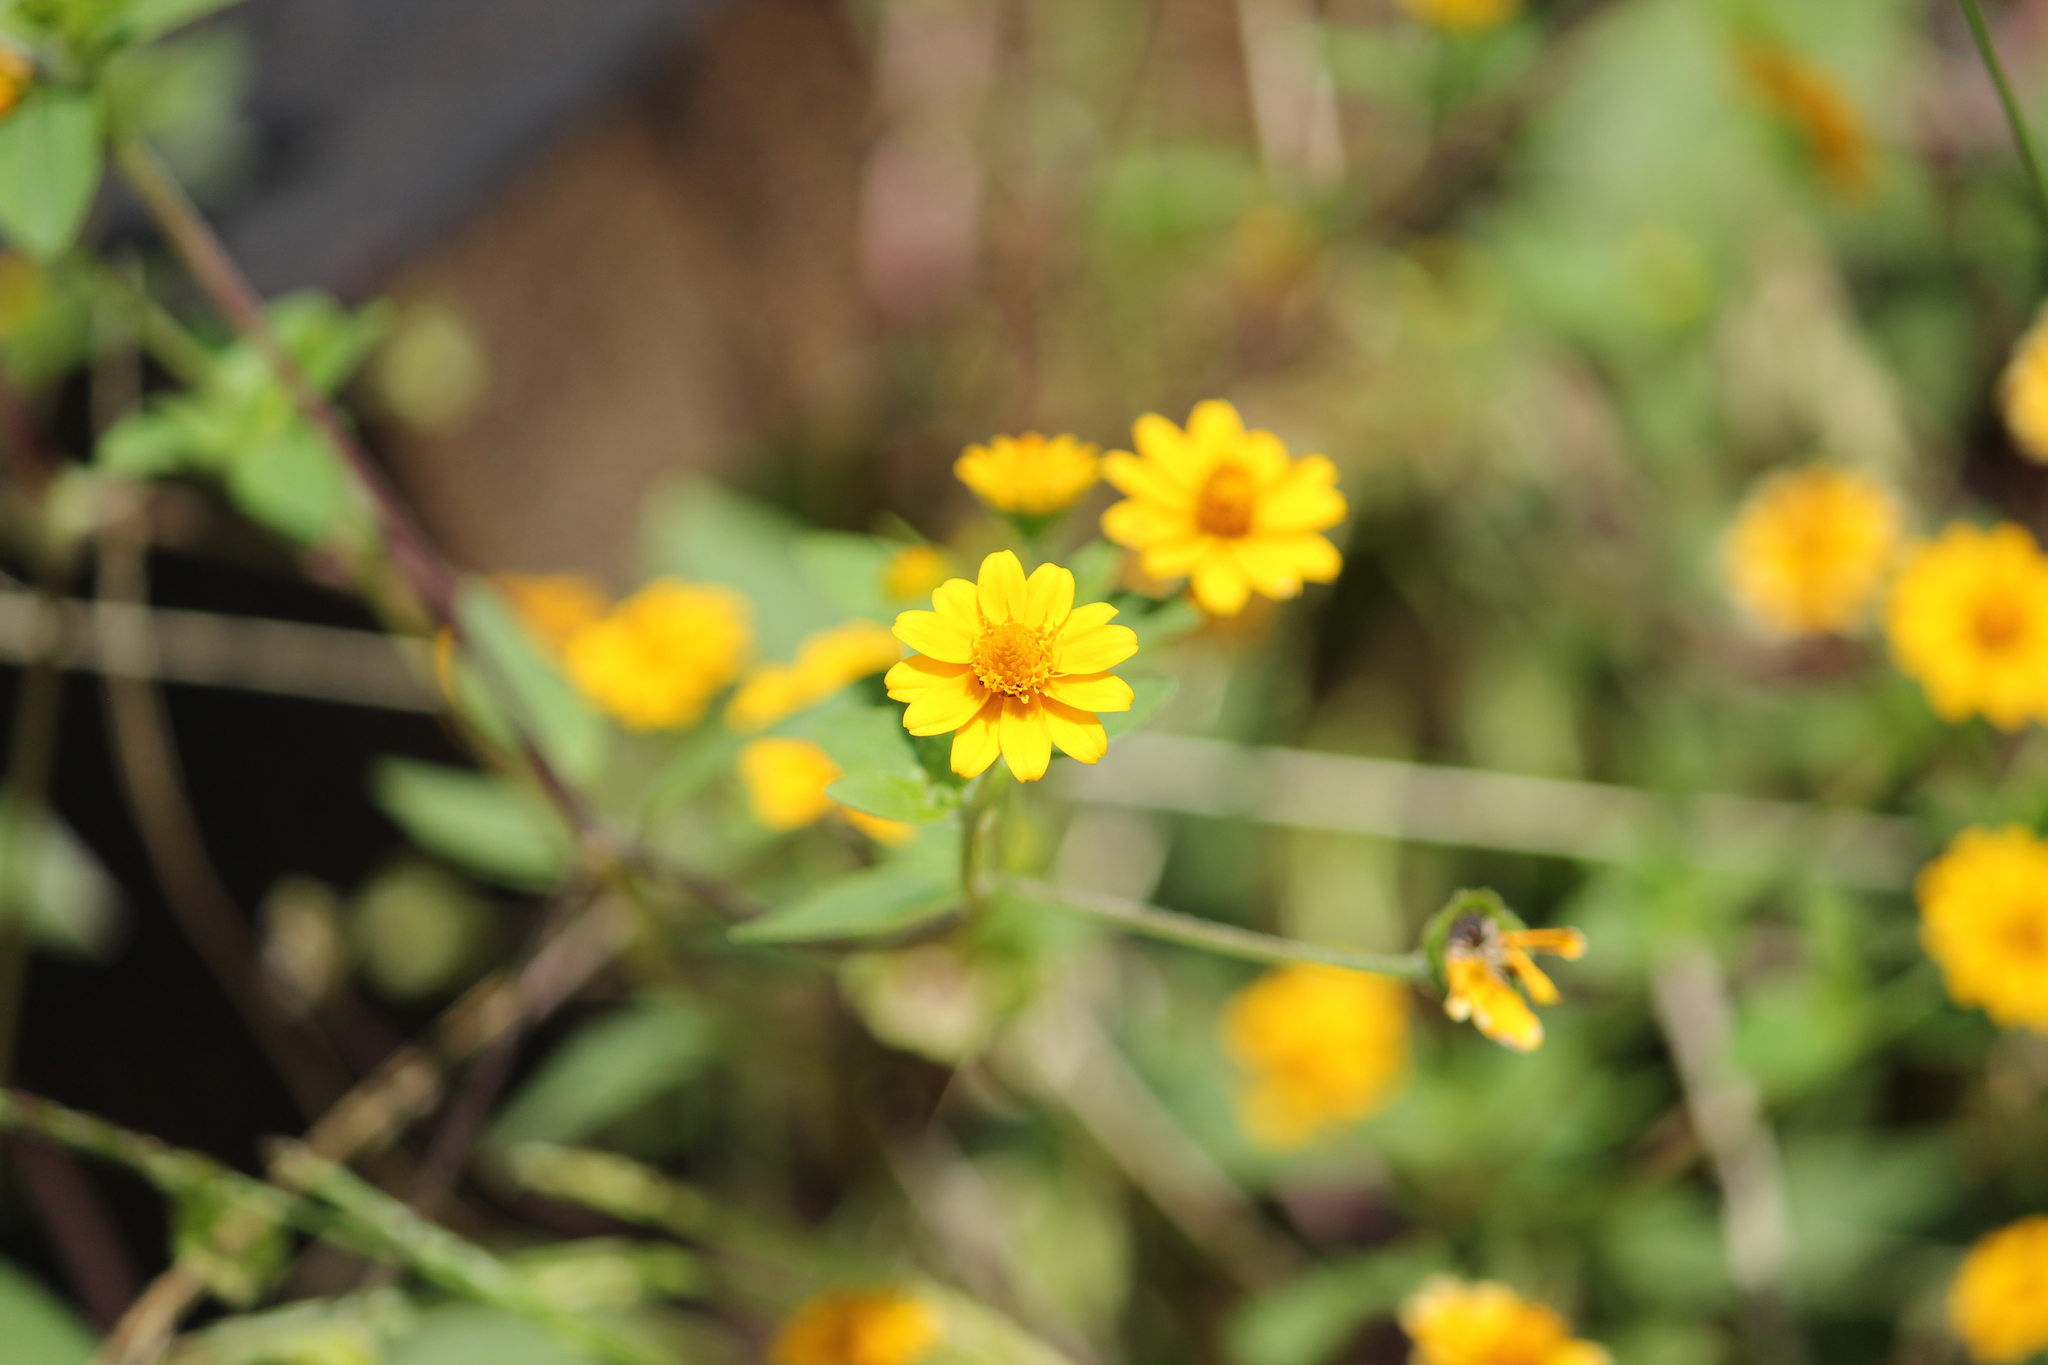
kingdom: Plantae
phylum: Tracheophyta
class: Magnoliopsida
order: Asterales
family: Asteraceae
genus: Melampodium
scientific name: Melampodium divaricatum
